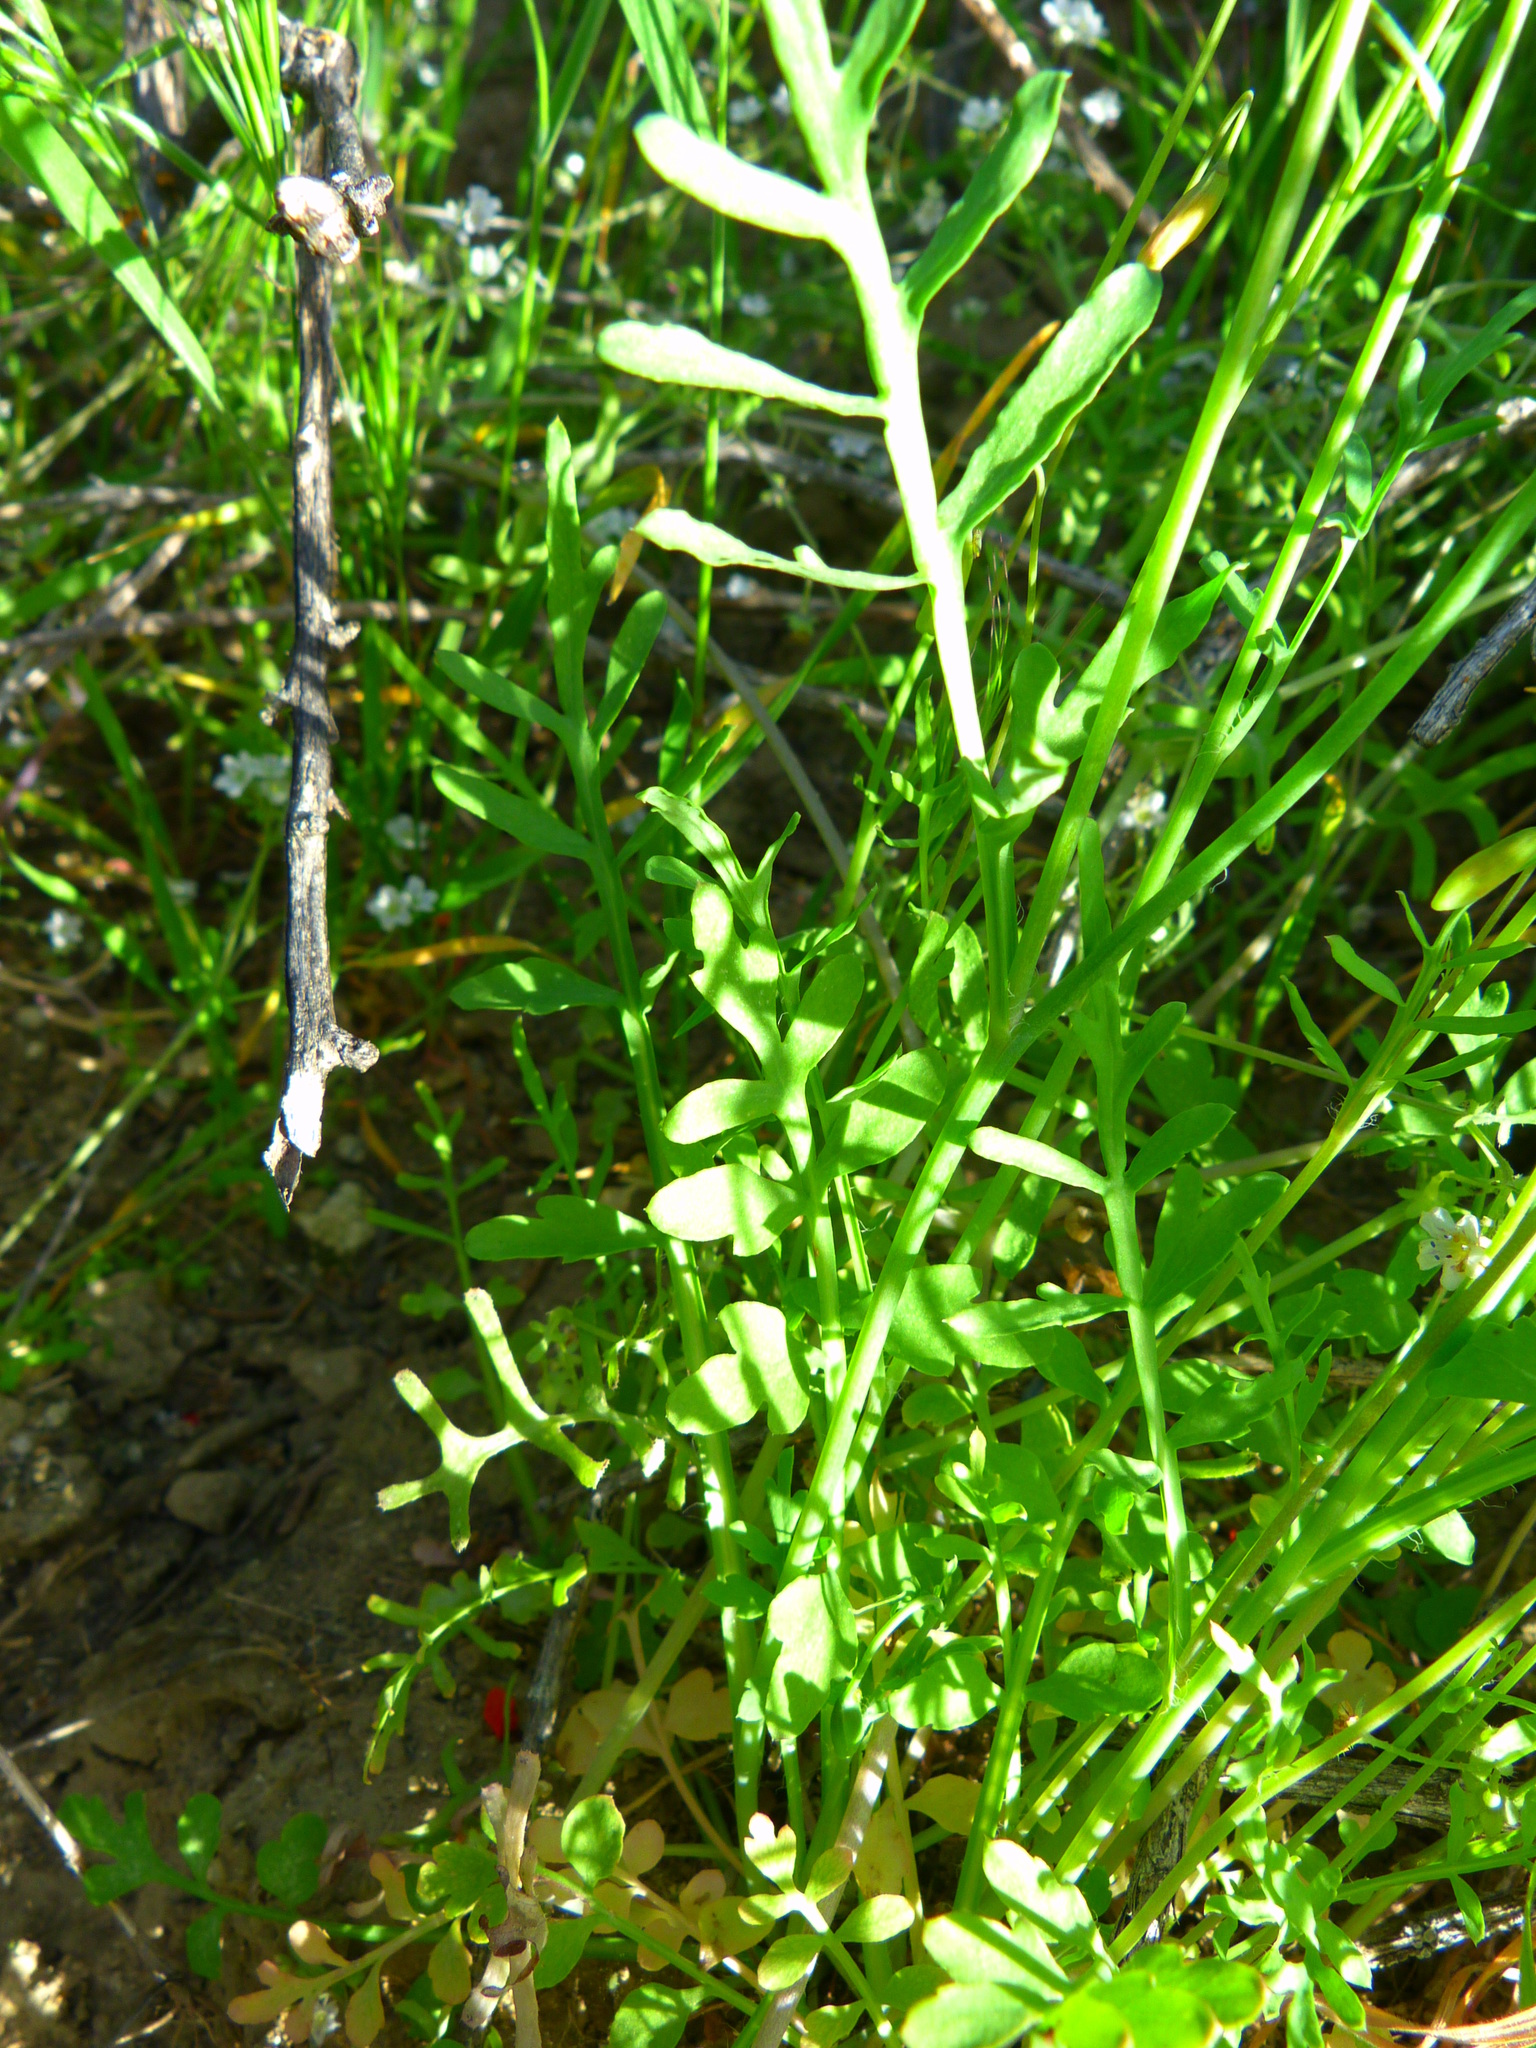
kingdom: Plantae
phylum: Tracheophyta
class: Magnoliopsida
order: Ranunculales
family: Papaveraceae
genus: Stylomecon
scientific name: Stylomecon heterophylla
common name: Flaming-poppy
